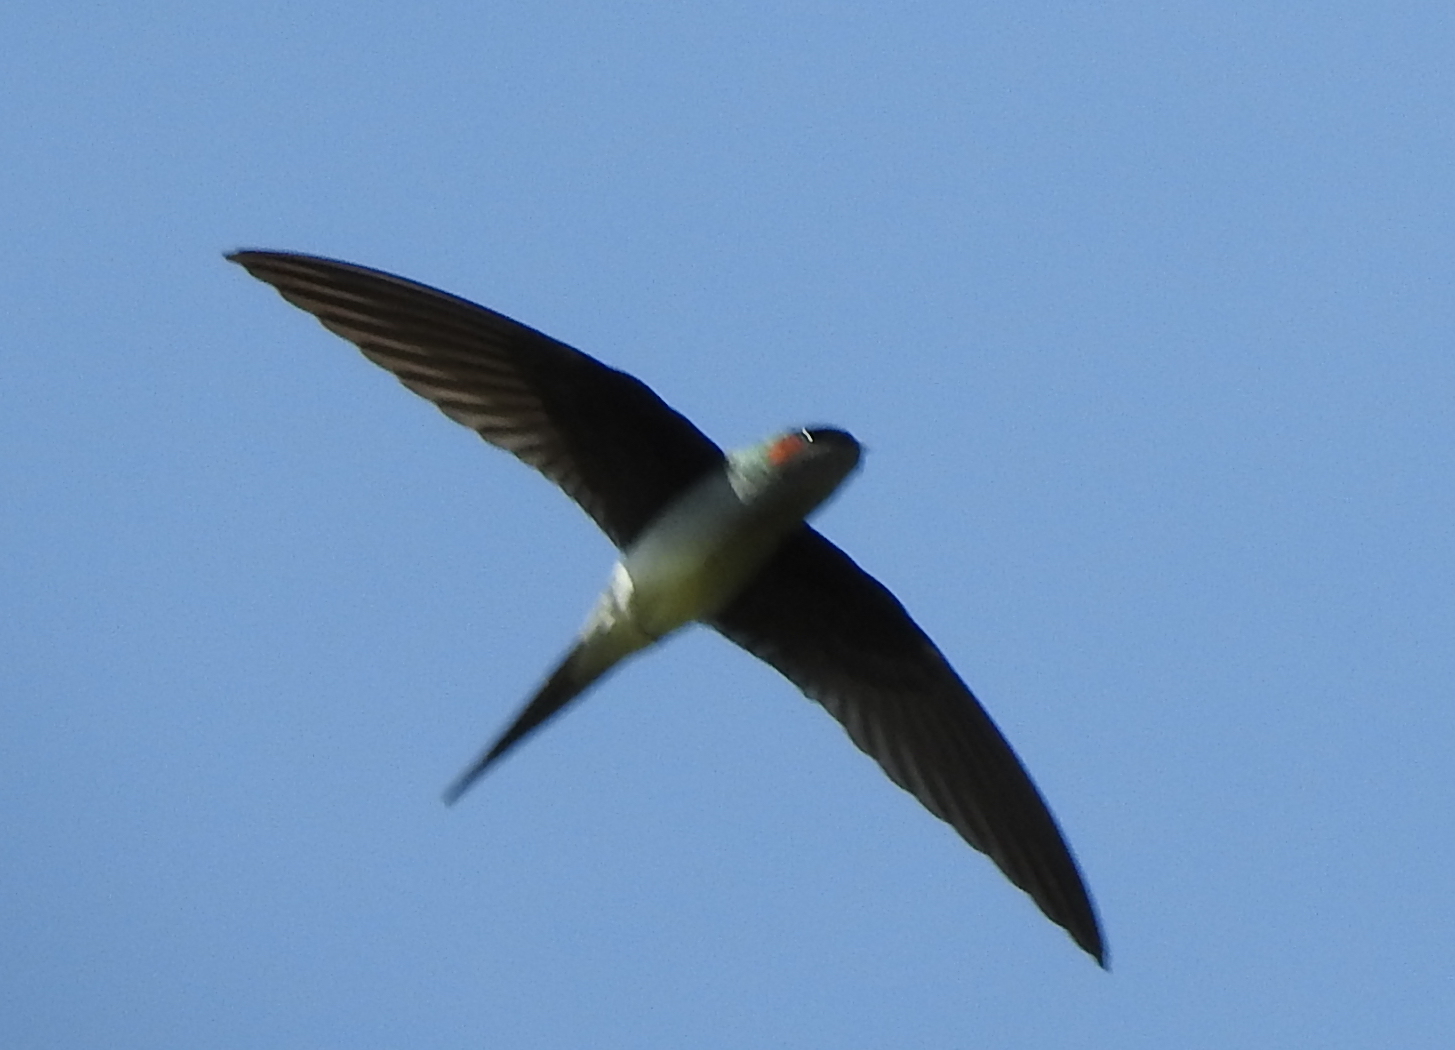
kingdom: Animalia
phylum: Chordata
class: Aves
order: Apodiformes
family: Hemiprocnidae
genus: Hemiprocne
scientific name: Hemiprocne longipennis
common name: Grey-rumped treeswift
